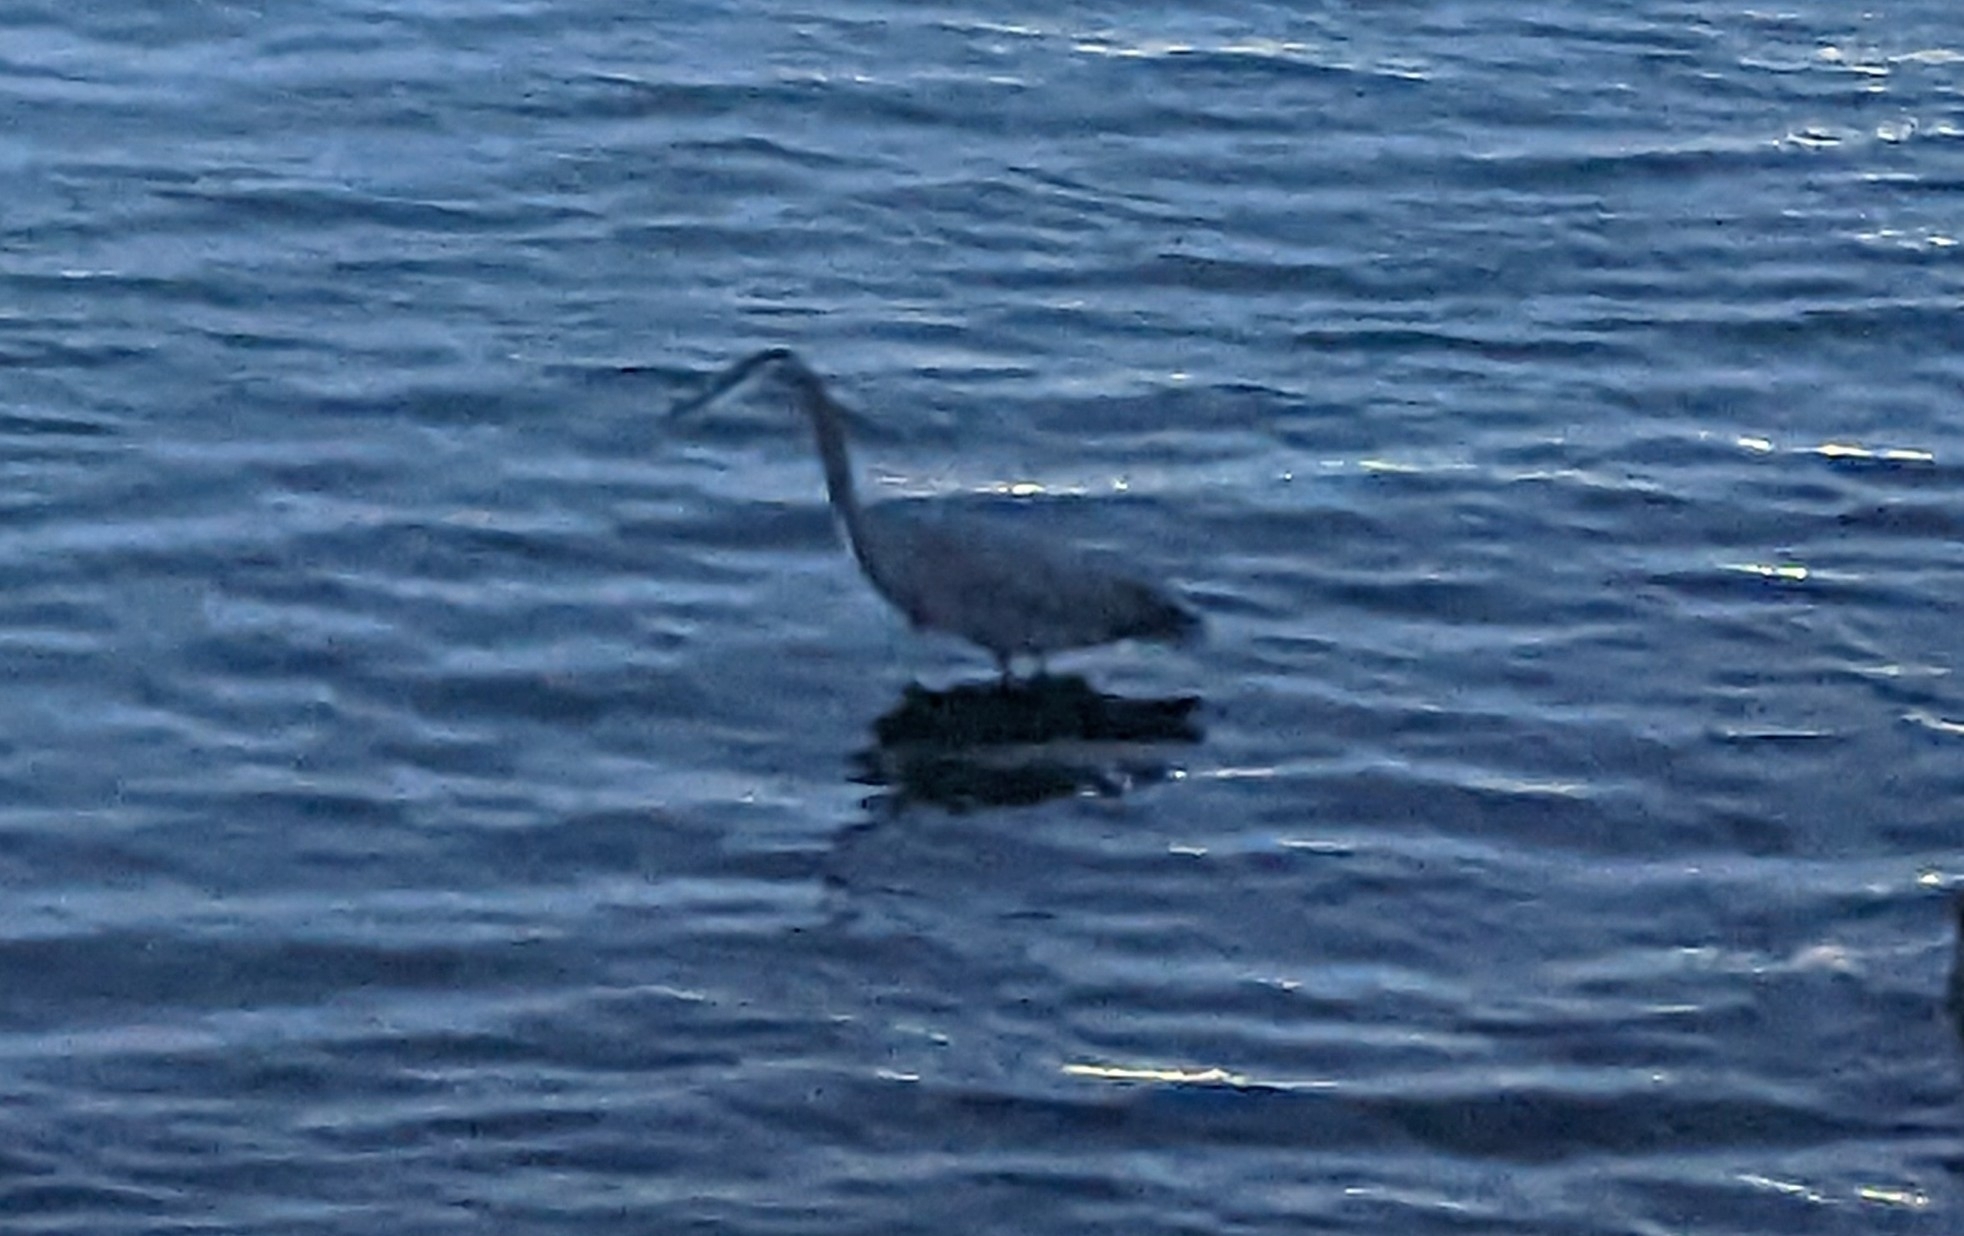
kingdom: Animalia
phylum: Chordata
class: Aves
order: Pelecaniformes
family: Ardeidae
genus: Ardea
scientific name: Ardea herodias
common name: Great blue heron
